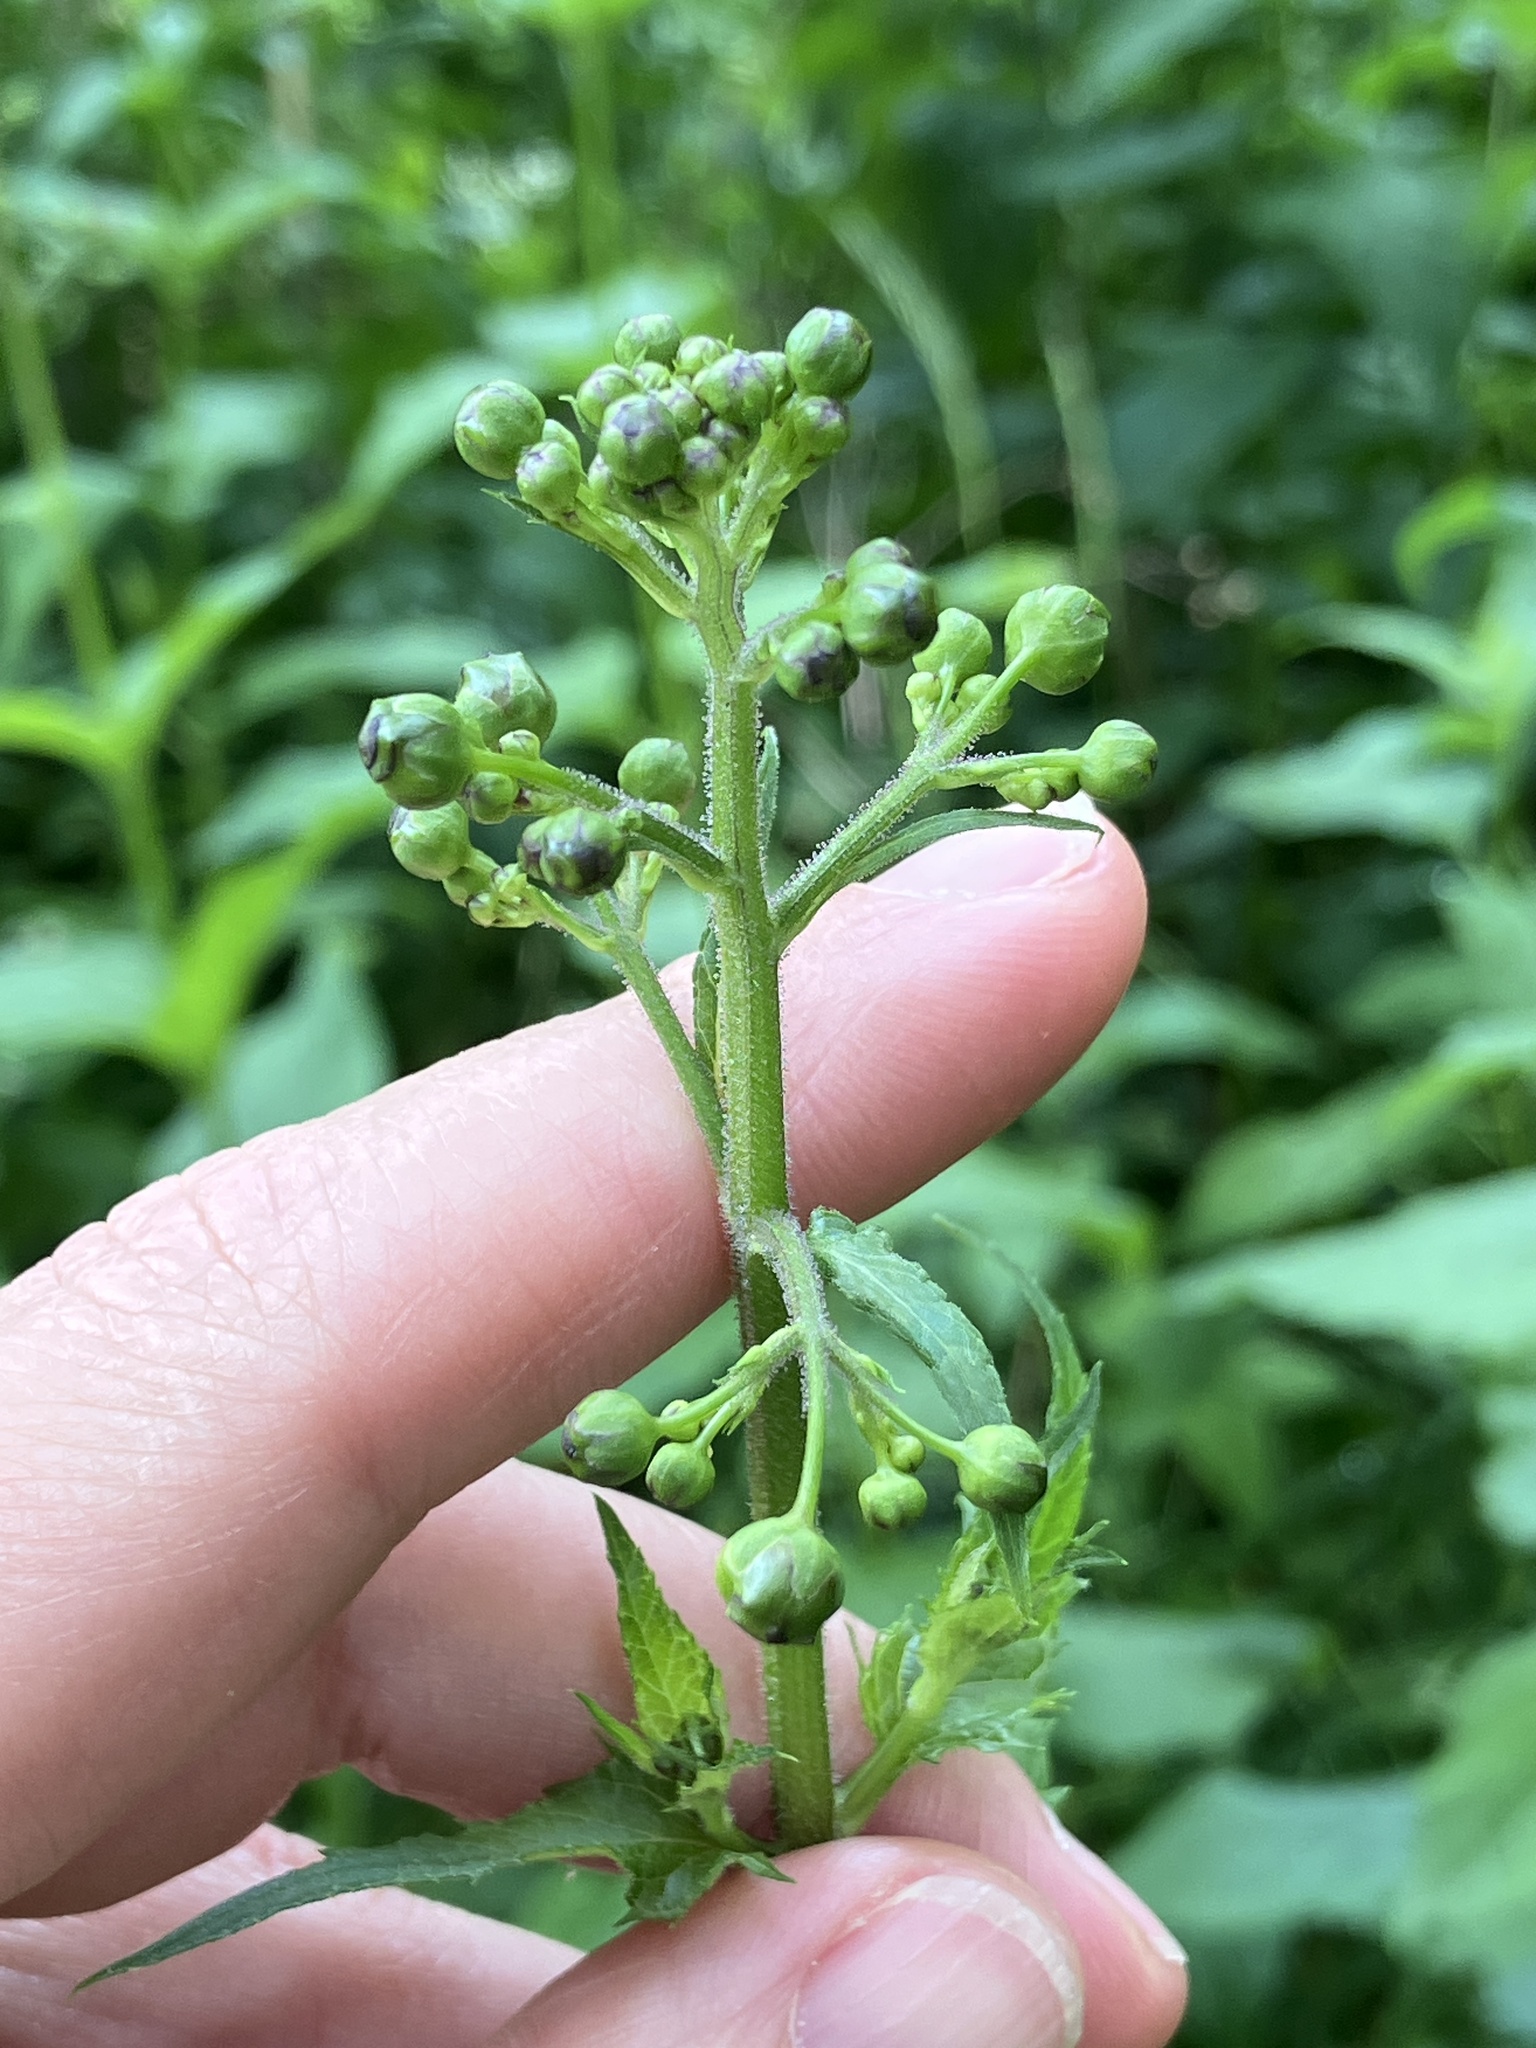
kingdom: Plantae
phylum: Tracheophyta
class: Magnoliopsida
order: Lamiales
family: Scrophulariaceae
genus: Scrophularia
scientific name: Scrophularia nodosa
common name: Common figwort
